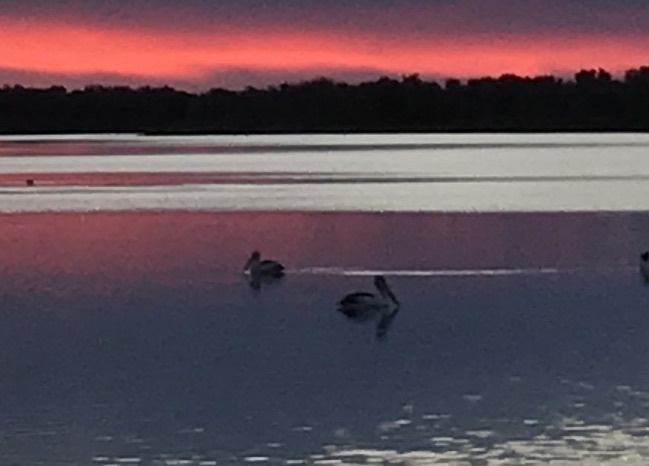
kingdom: Animalia
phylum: Chordata
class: Aves
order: Pelecaniformes
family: Pelecanidae
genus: Pelecanus
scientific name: Pelecanus conspicillatus
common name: Australian pelican
